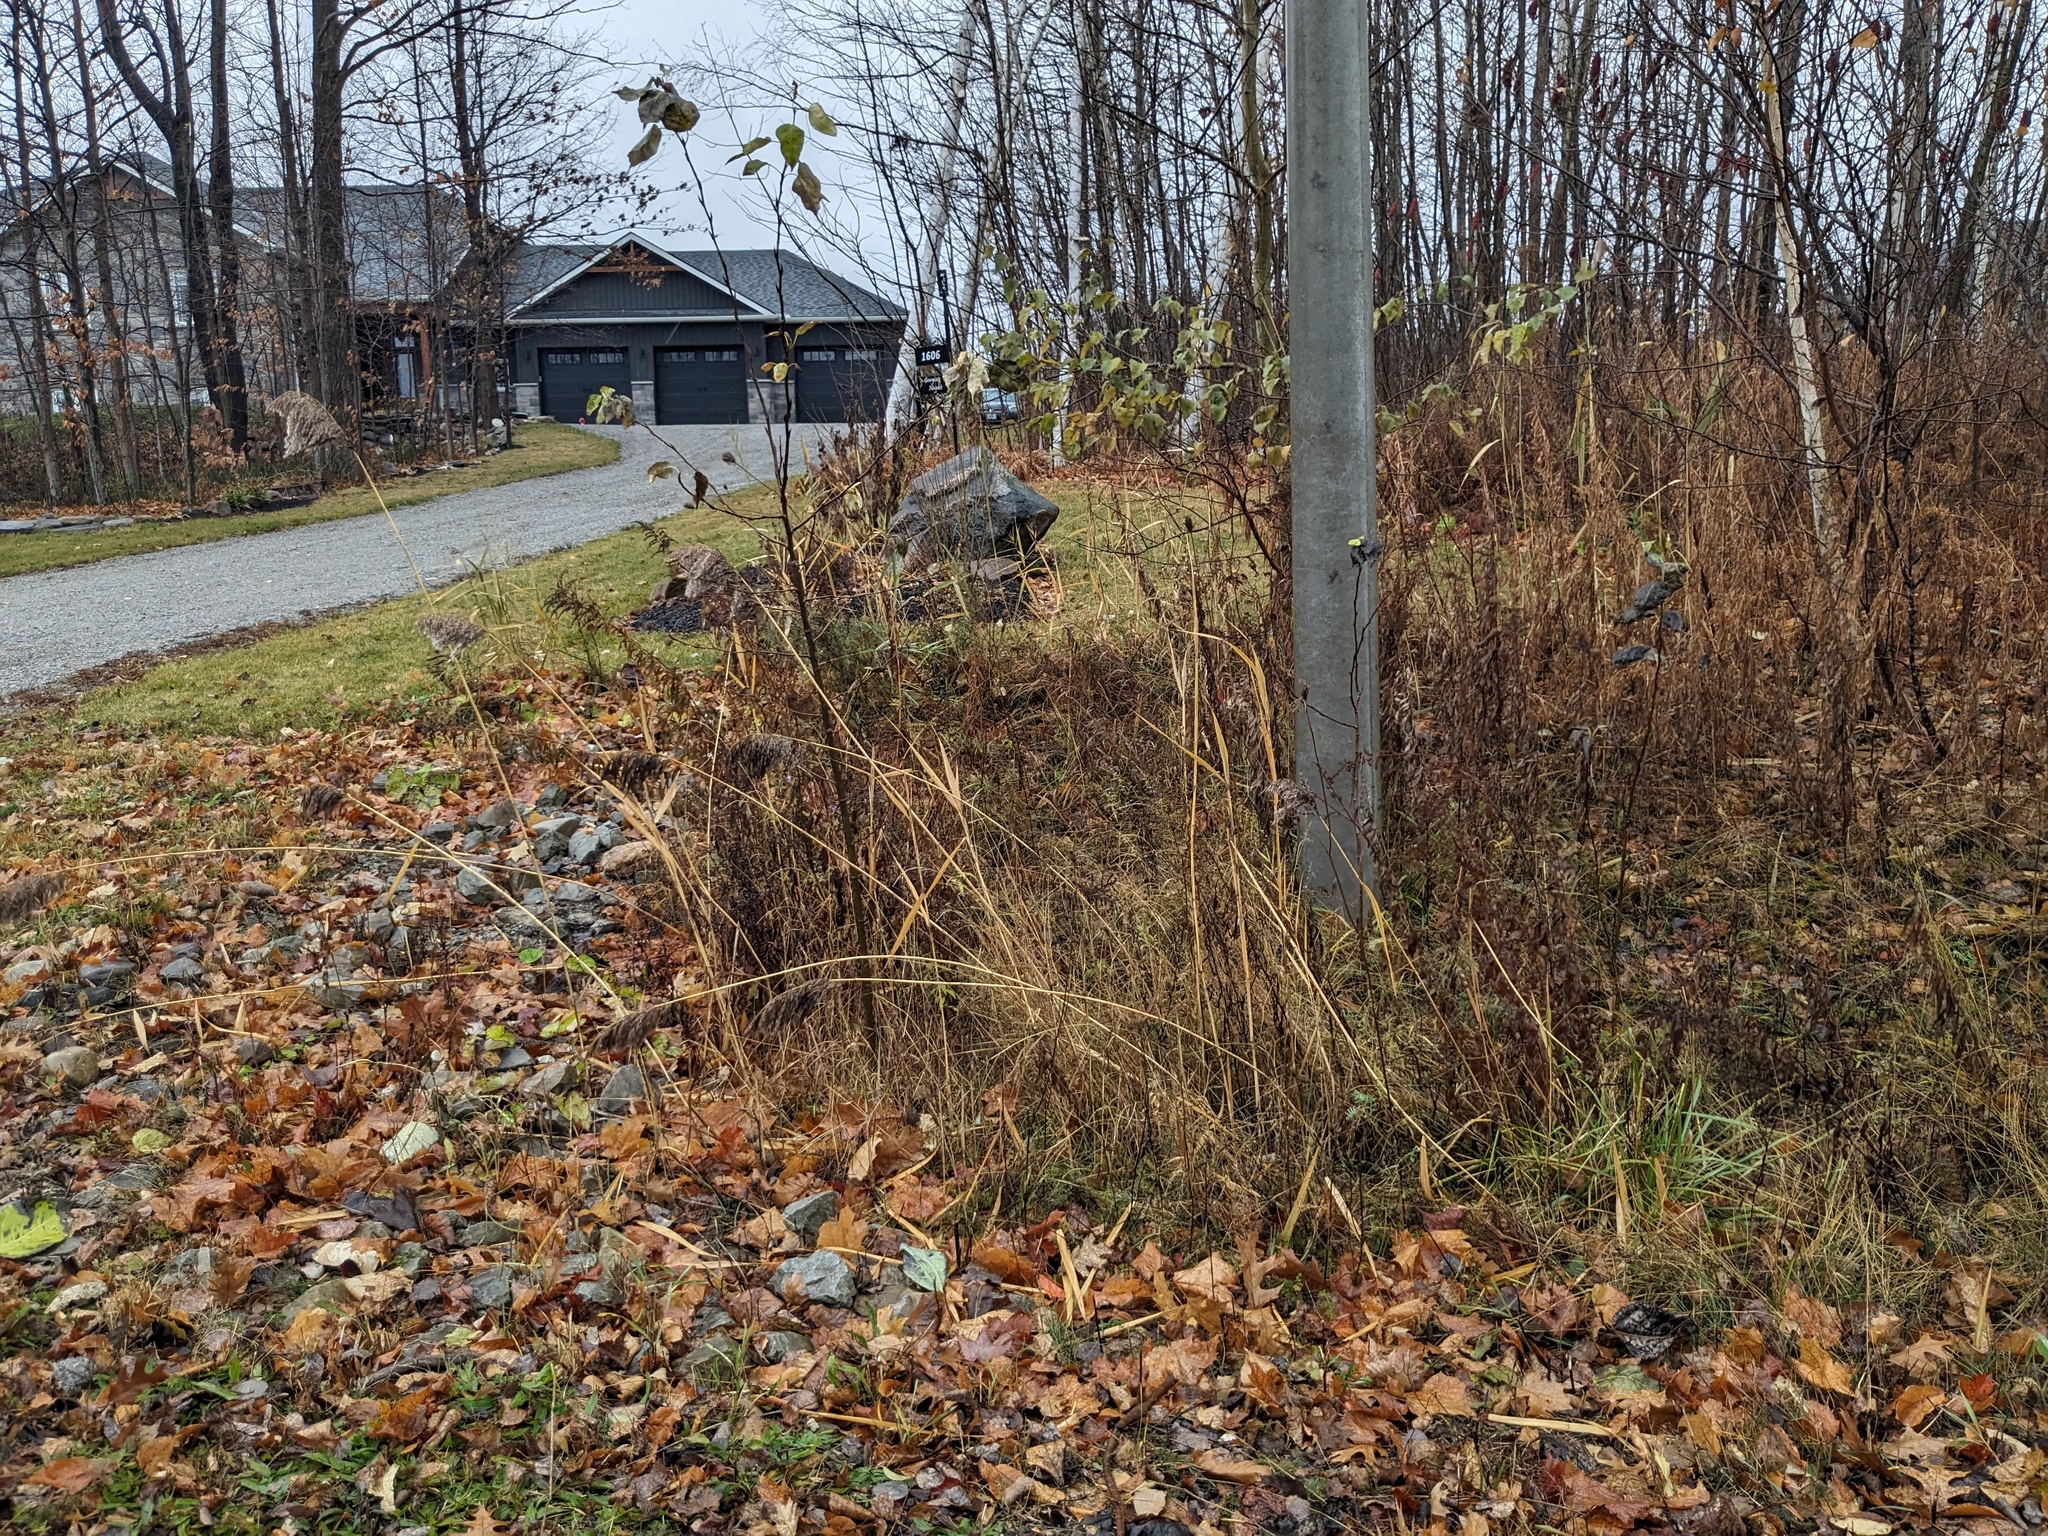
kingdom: Plantae
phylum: Tracheophyta
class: Liliopsida
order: Poales
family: Poaceae
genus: Phragmites
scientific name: Phragmites australis
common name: Common reed
